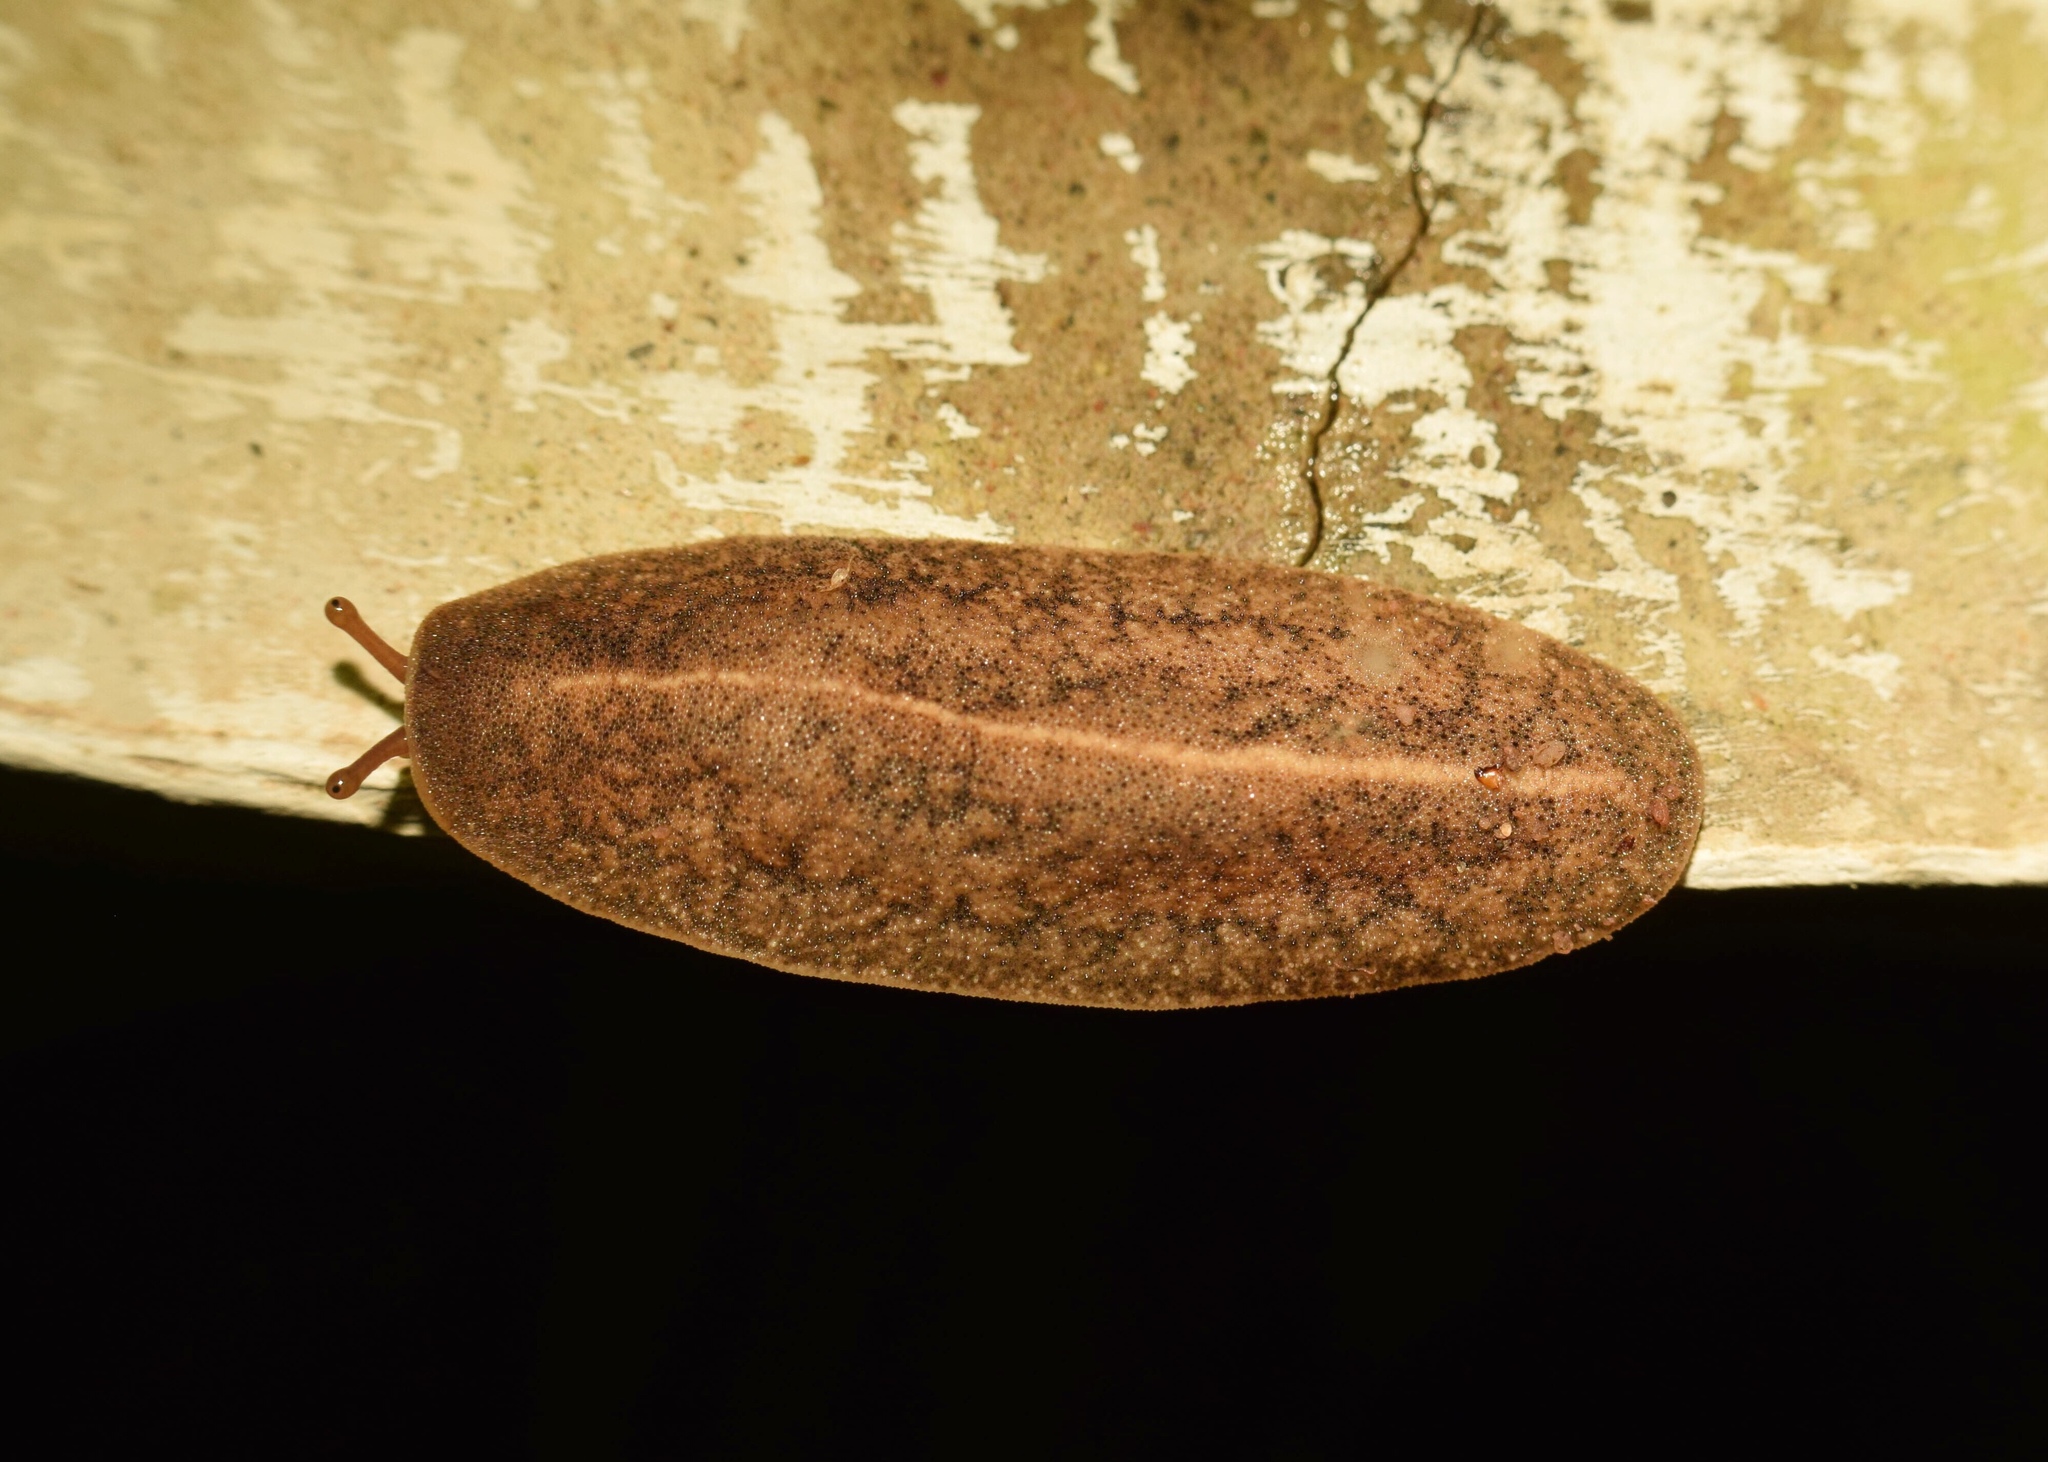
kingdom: Animalia
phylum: Mollusca
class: Gastropoda
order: Systellommatophora
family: Veronicellidae
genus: Laevicaulis
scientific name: Laevicaulis alte
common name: Tropical leatherleaf
